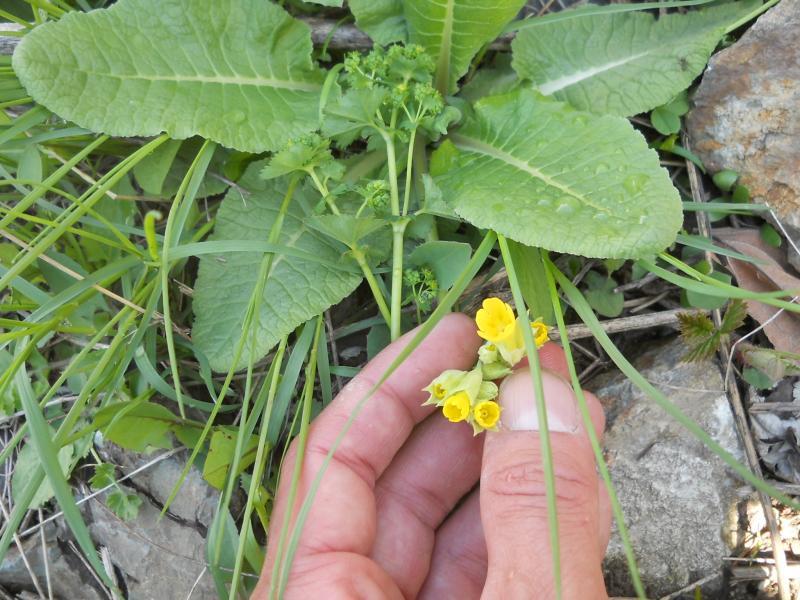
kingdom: Plantae
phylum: Tracheophyta
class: Magnoliopsida
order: Ericales
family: Primulaceae
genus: Primula
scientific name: Primula veris
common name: Cowslip
